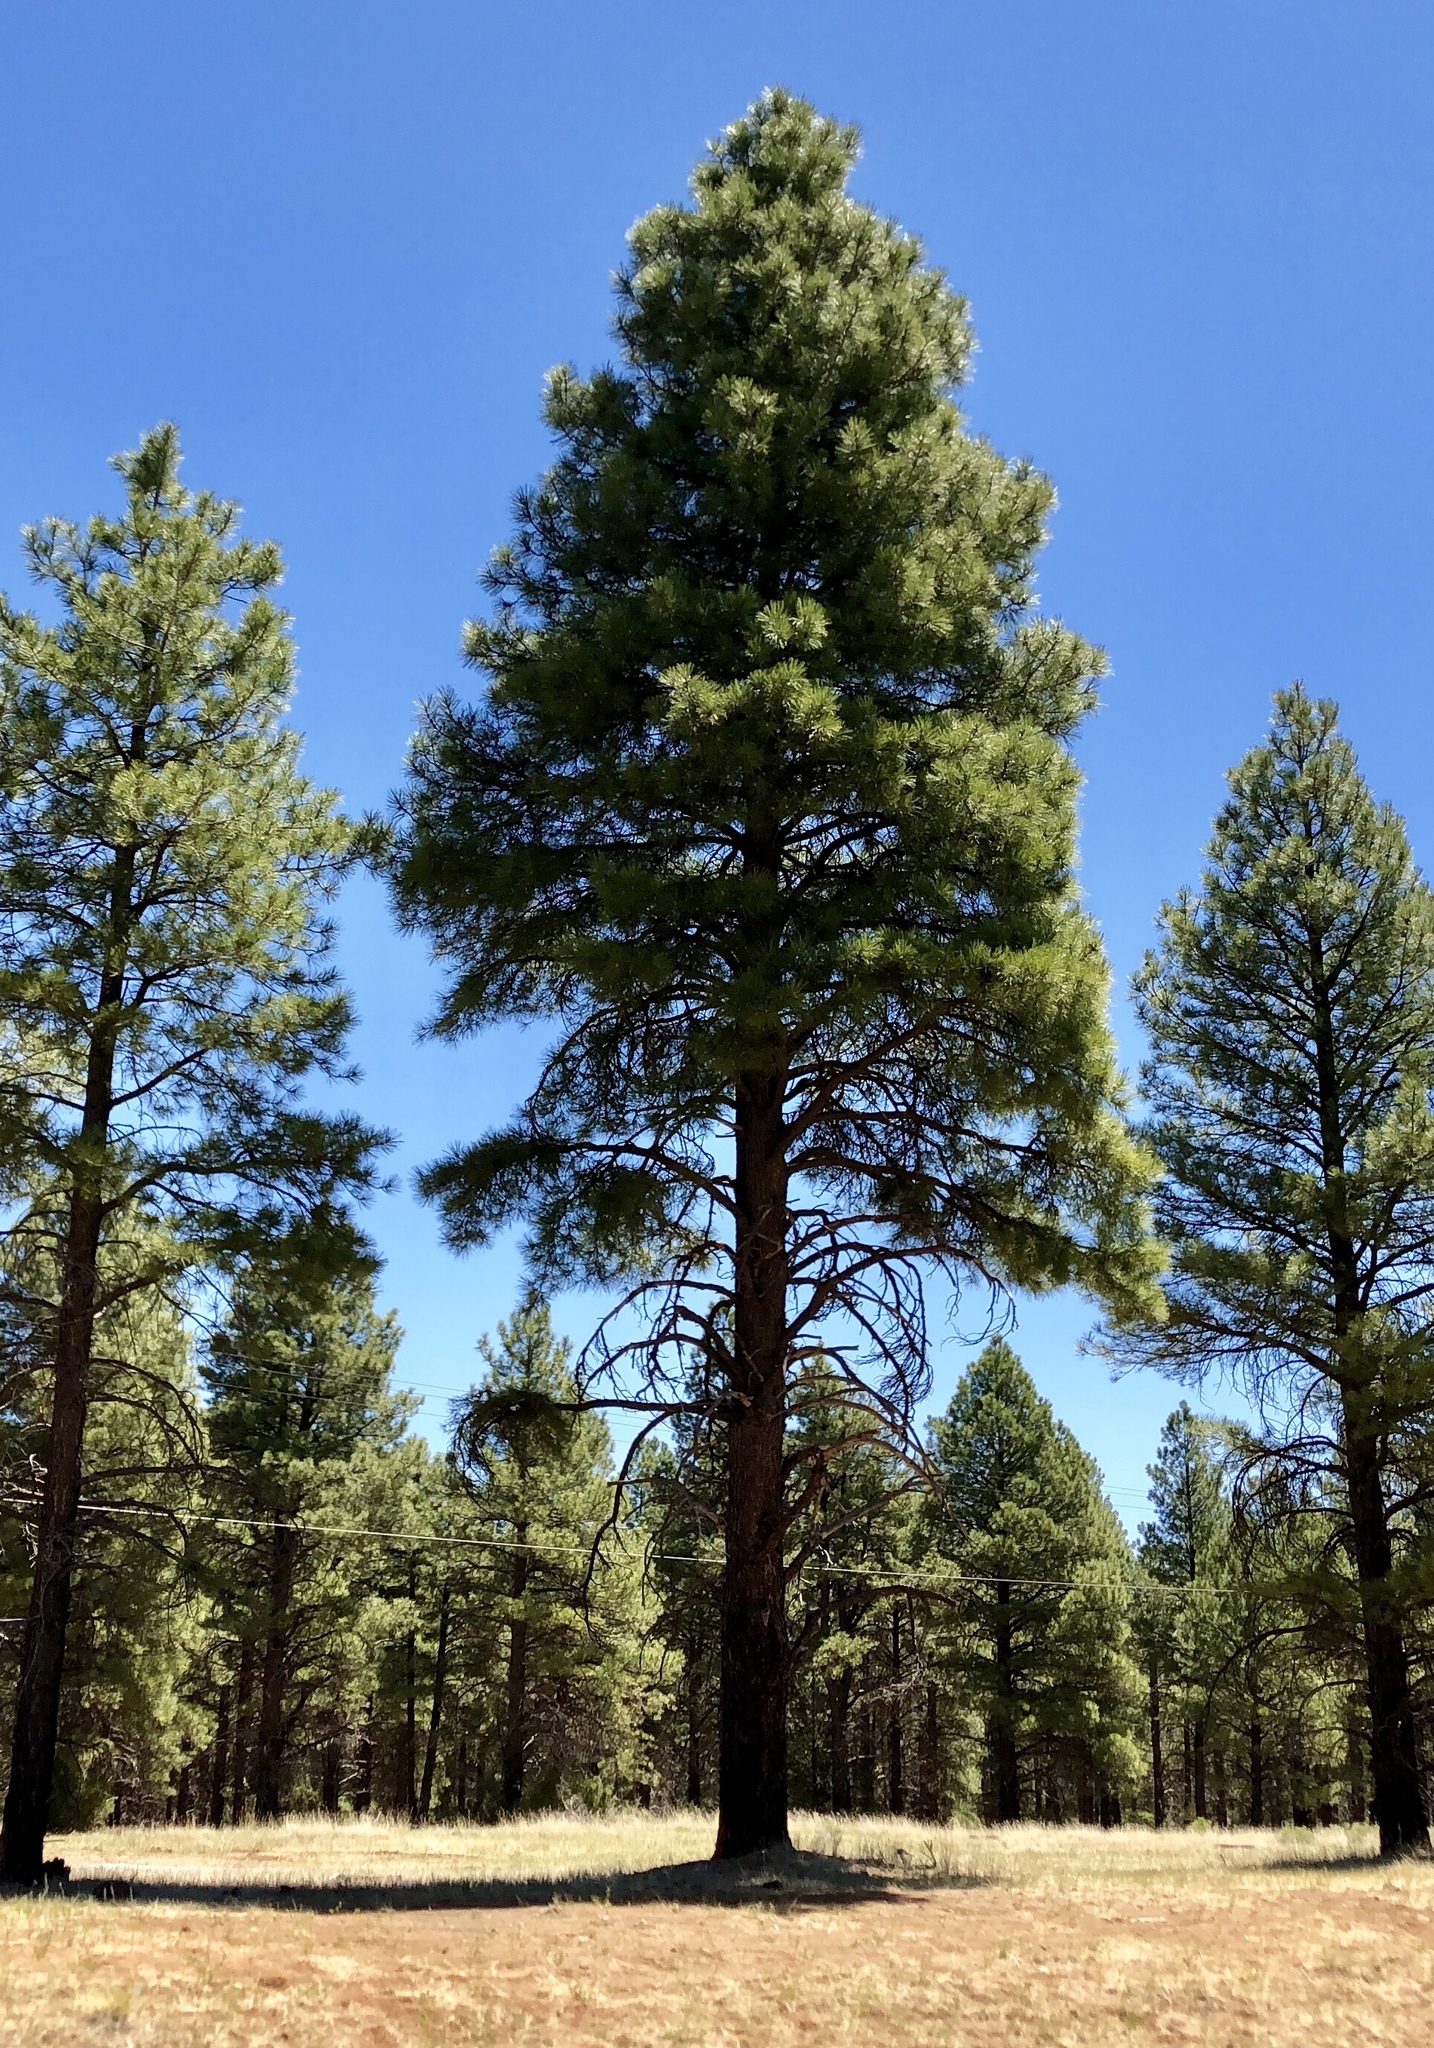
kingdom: Plantae
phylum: Tracheophyta
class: Pinopsida
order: Pinales
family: Pinaceae
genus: Pinus
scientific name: Pinus ponderosa
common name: Western yellow-pine
